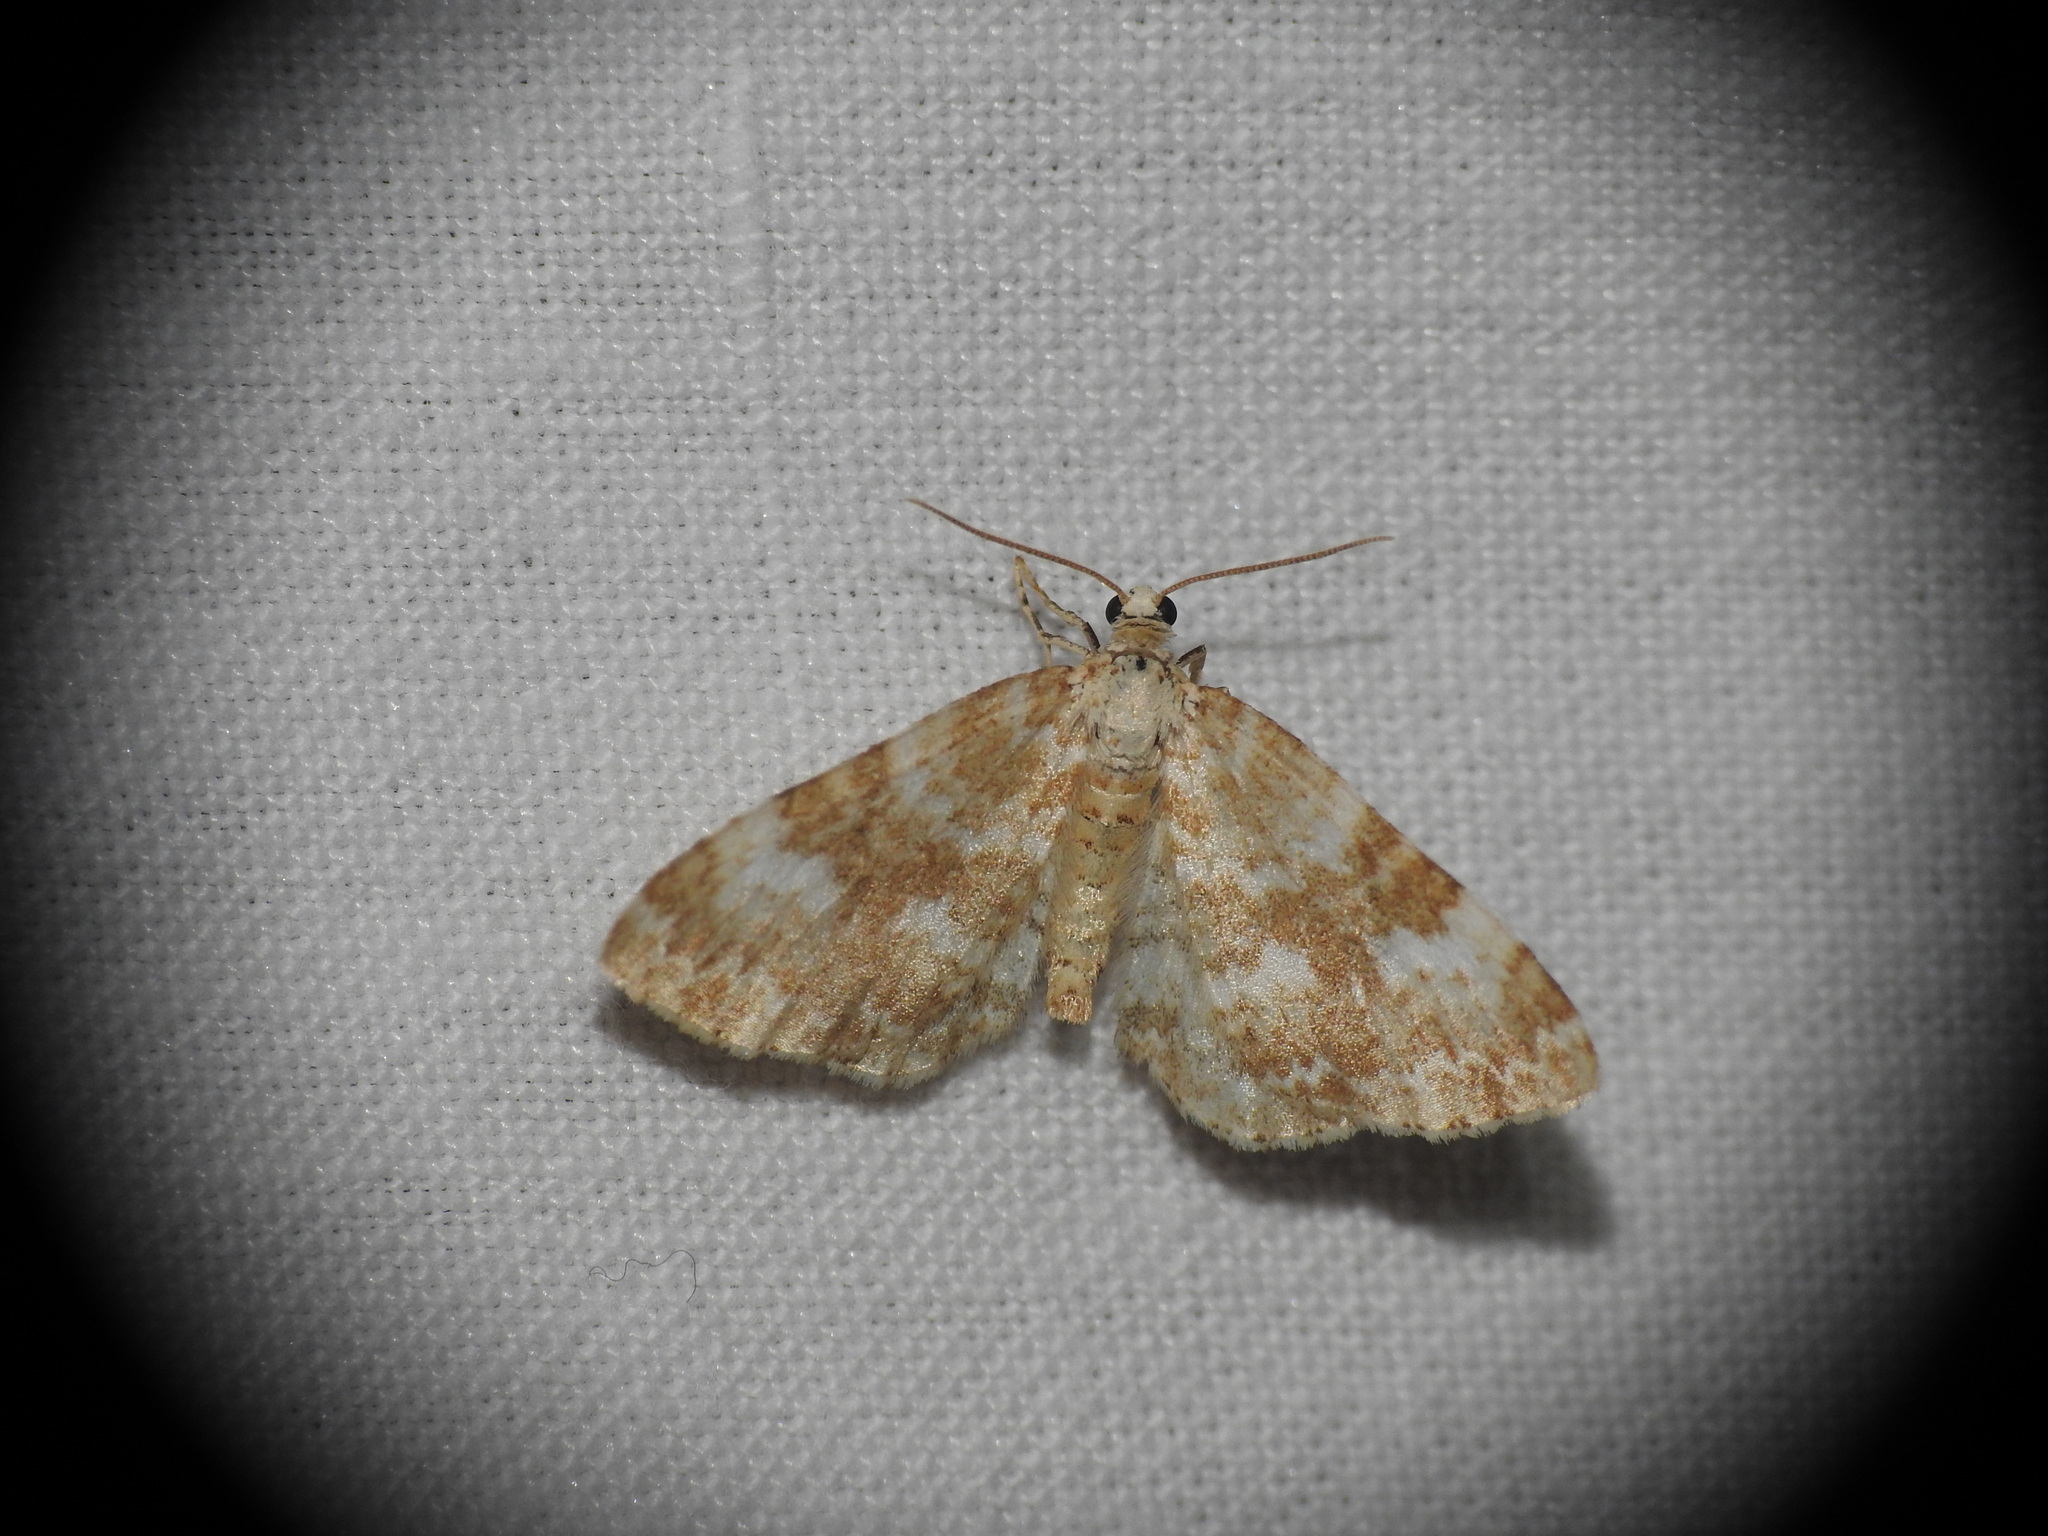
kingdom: Animalia
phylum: Arthropoda
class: Insecta
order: Lepidoptera
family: Geometridae
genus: Perizoma
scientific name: Perizoma flavofasciata
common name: Sandy carpet
